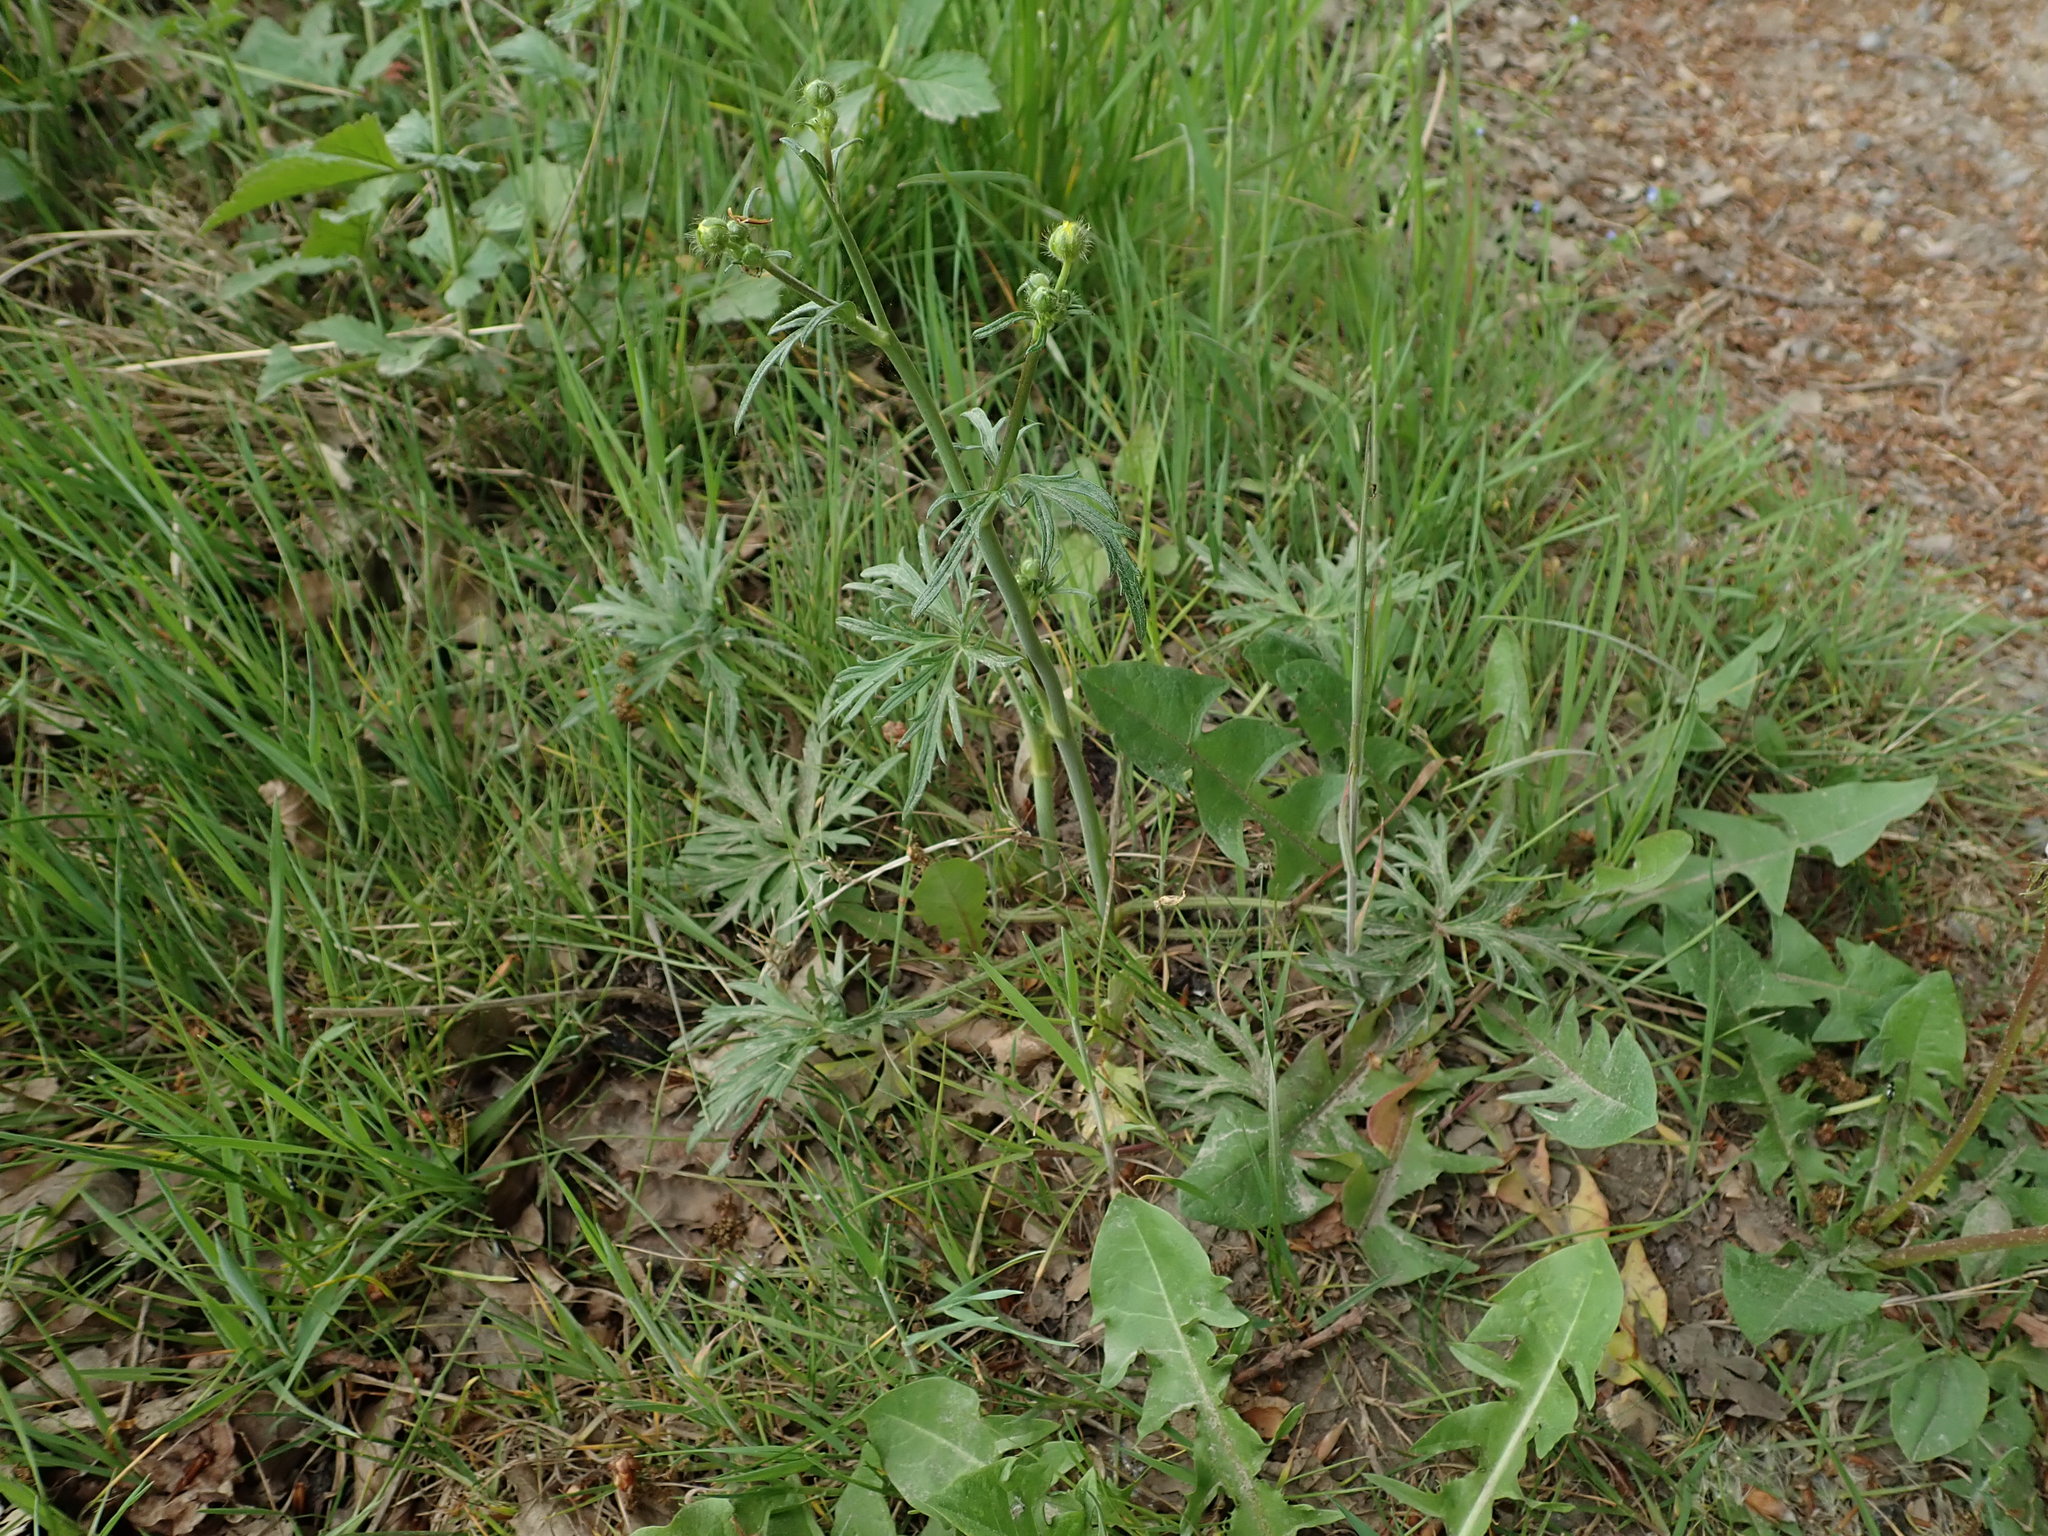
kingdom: Plantae
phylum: Tracheophyta
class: Magnoliopsida
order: Ranunculales
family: Ranunculaceae
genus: Ranunculus
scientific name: Ranunculus acris
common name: Meadow buttercup
